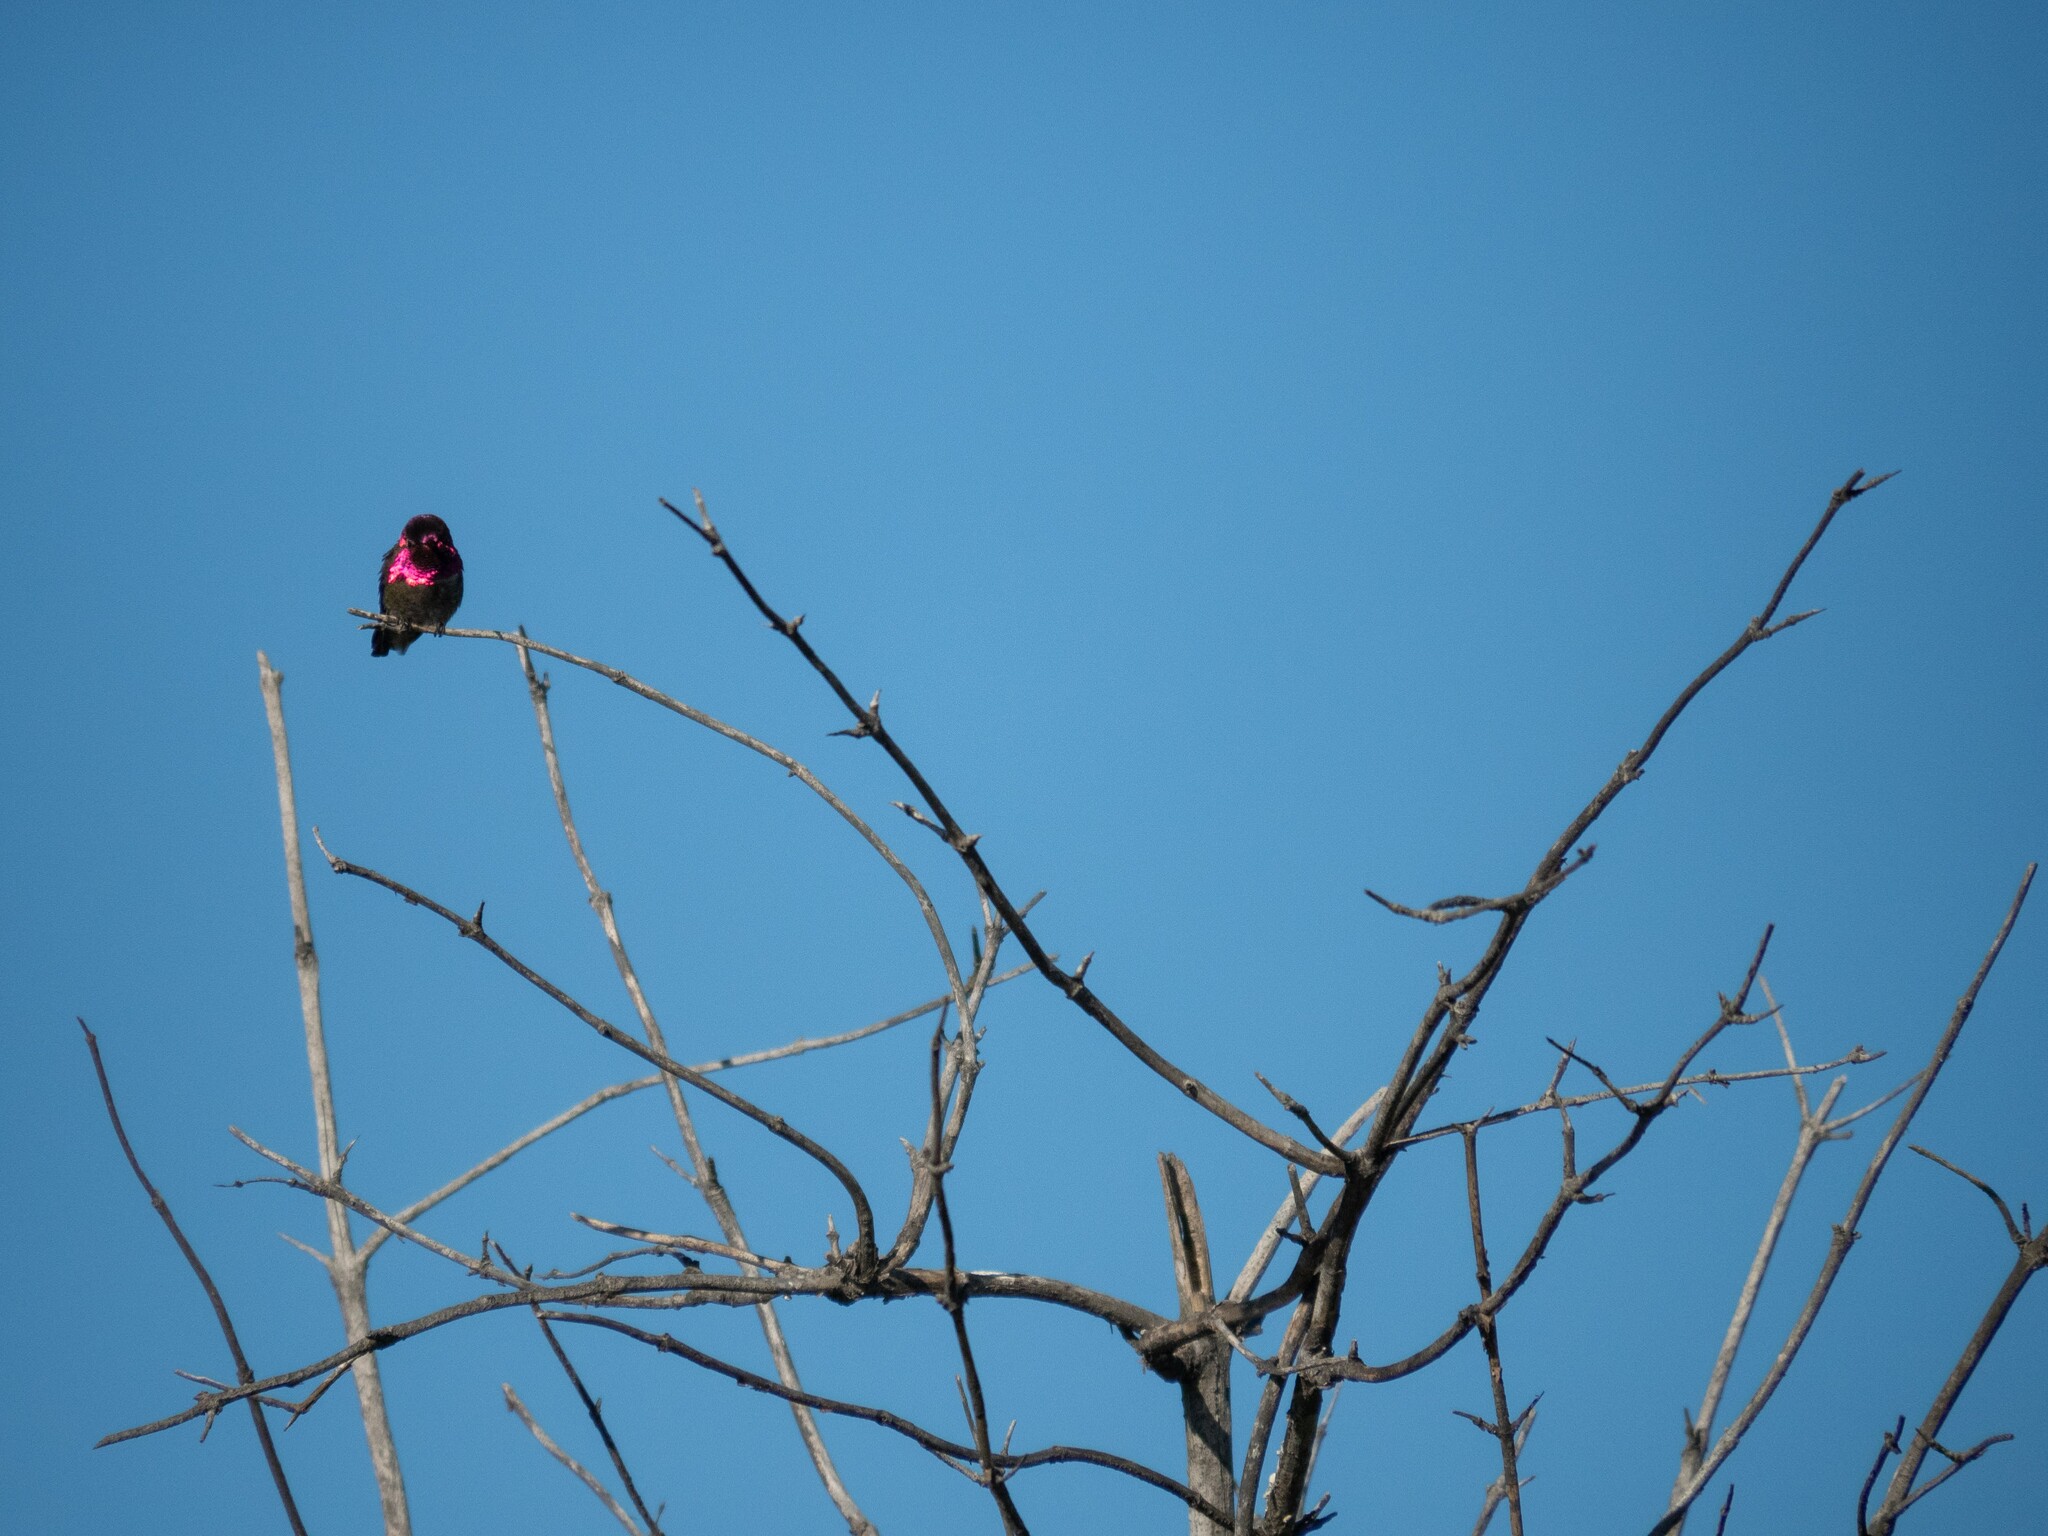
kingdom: Animalia
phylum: Chordata
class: Aves
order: Apodiformes
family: Trochilidae
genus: Calypte
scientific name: Calypte anna
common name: Anna's hummingbird
